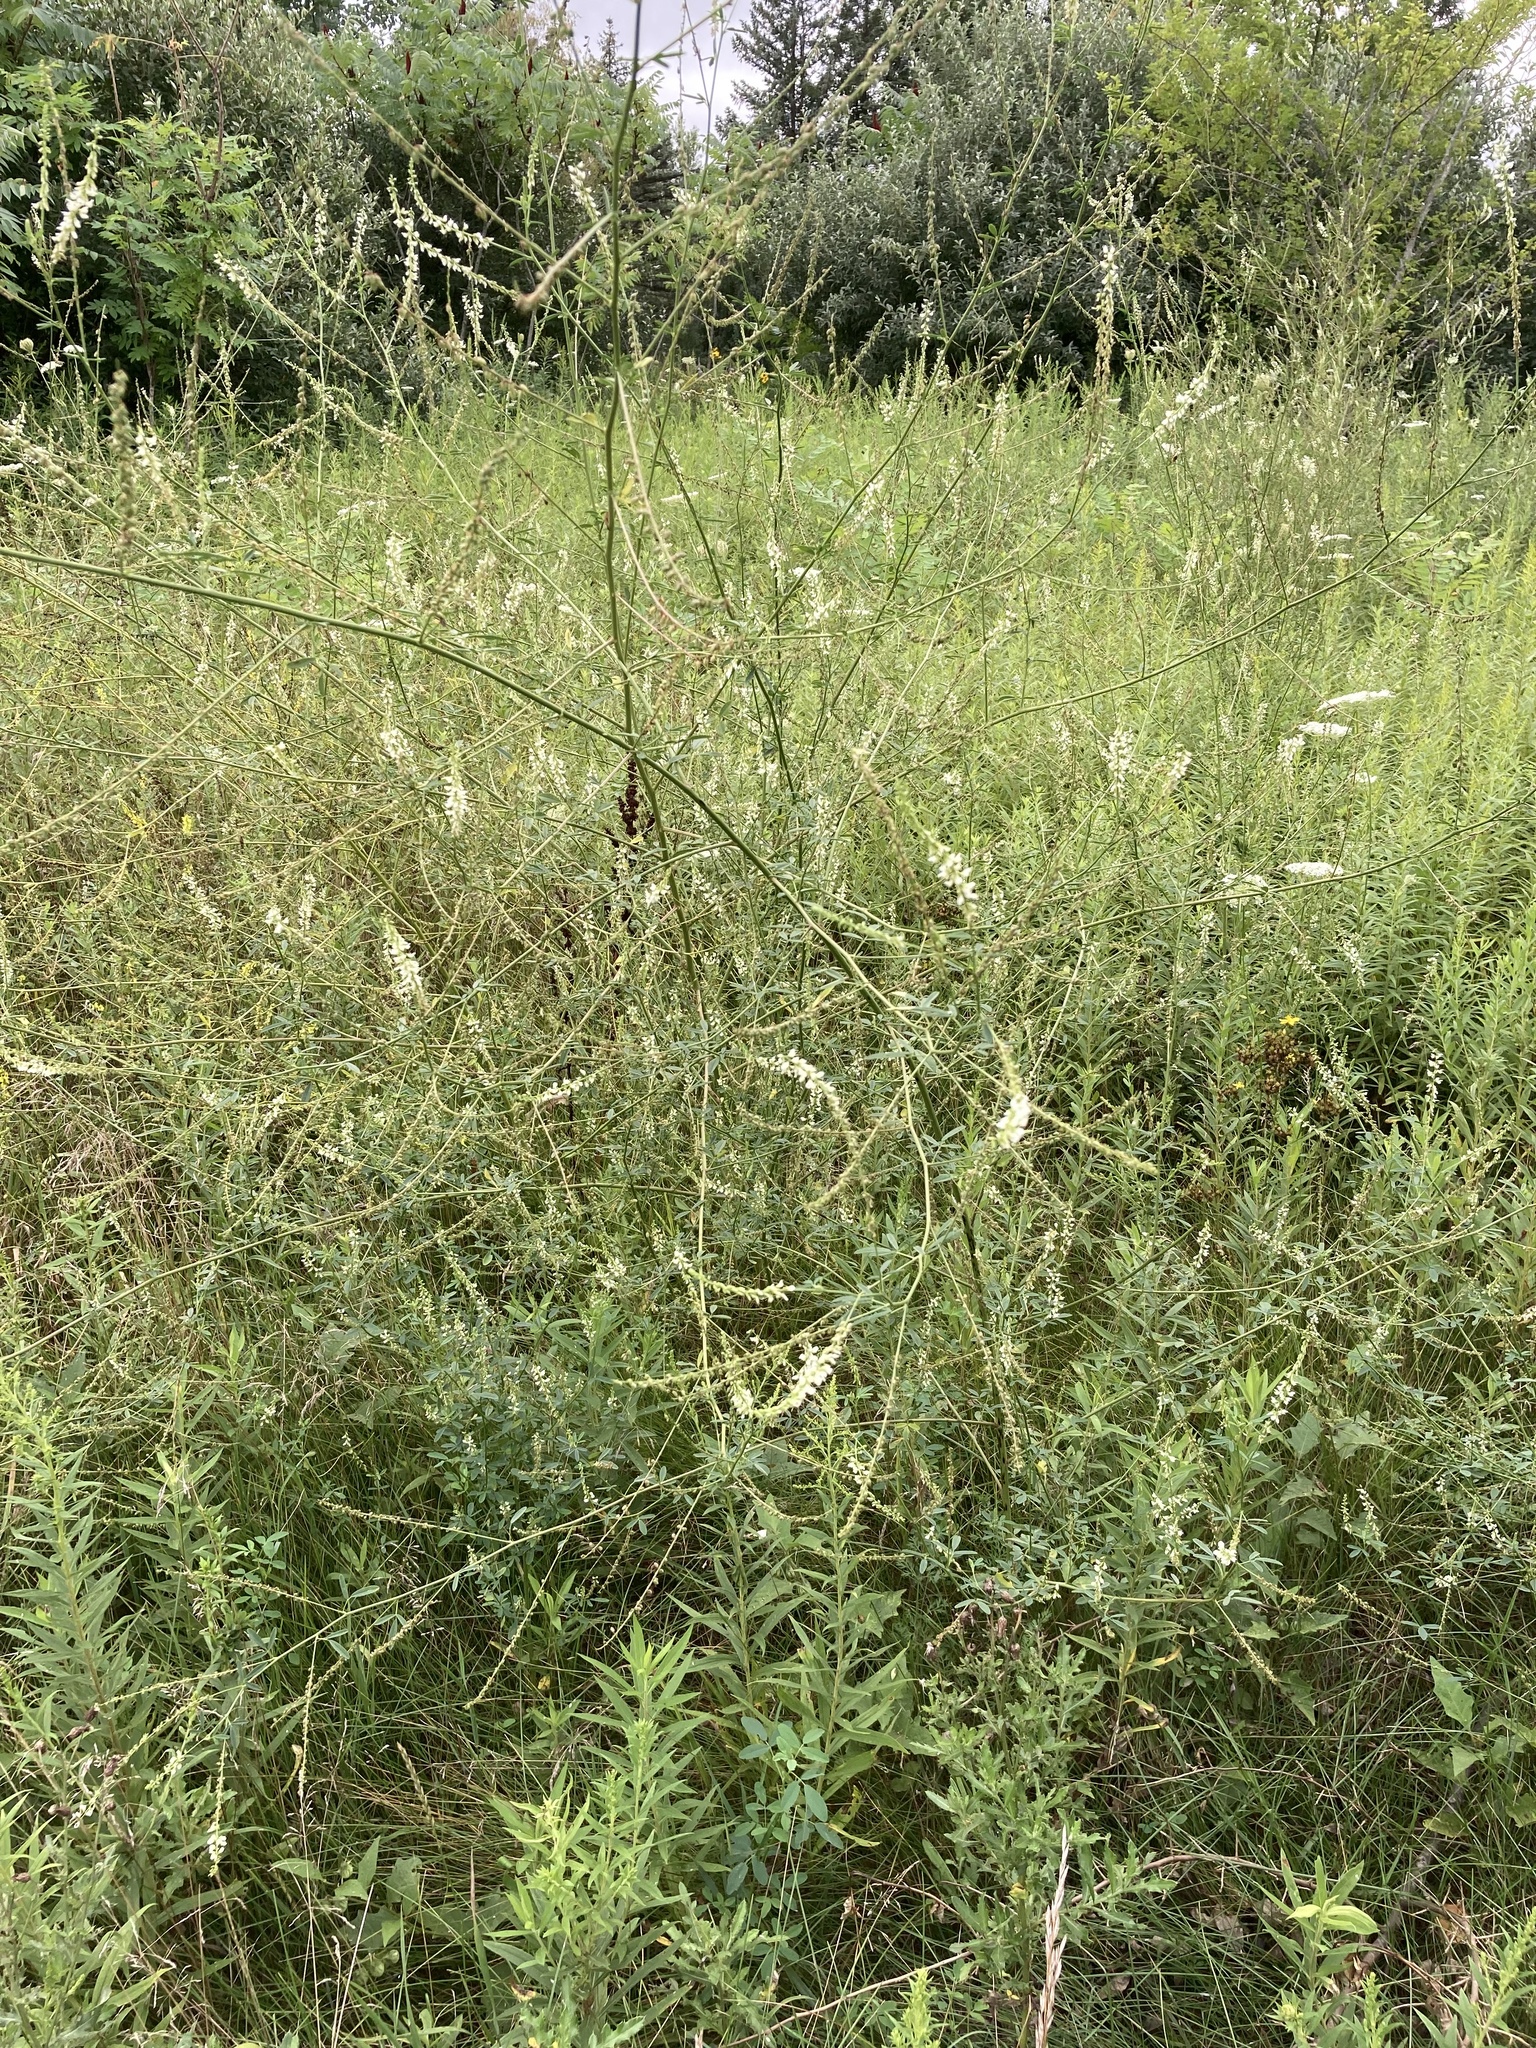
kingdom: Plantae
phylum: Tracheophyta
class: Magnoliopsida
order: Fabales
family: Fabaceae
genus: Melilotus
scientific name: Melilotus albus
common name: White melilot
